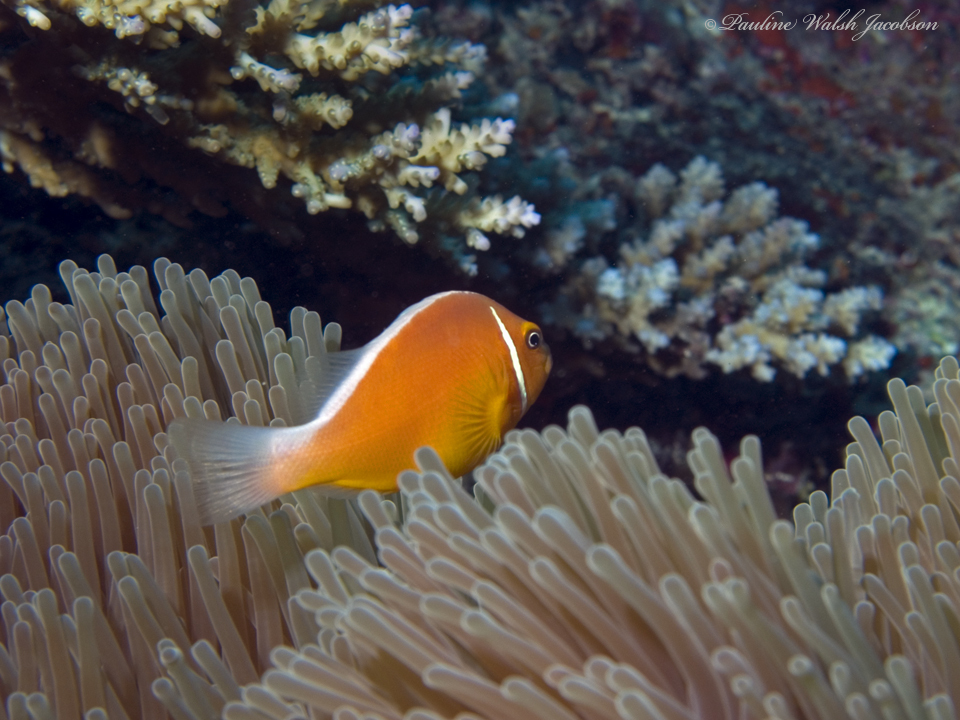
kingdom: Animalia
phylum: Chordata
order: Perciformes
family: Pomacentridae
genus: Amphiprion
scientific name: Amphiprion perideraion
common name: Pink anemonefish
